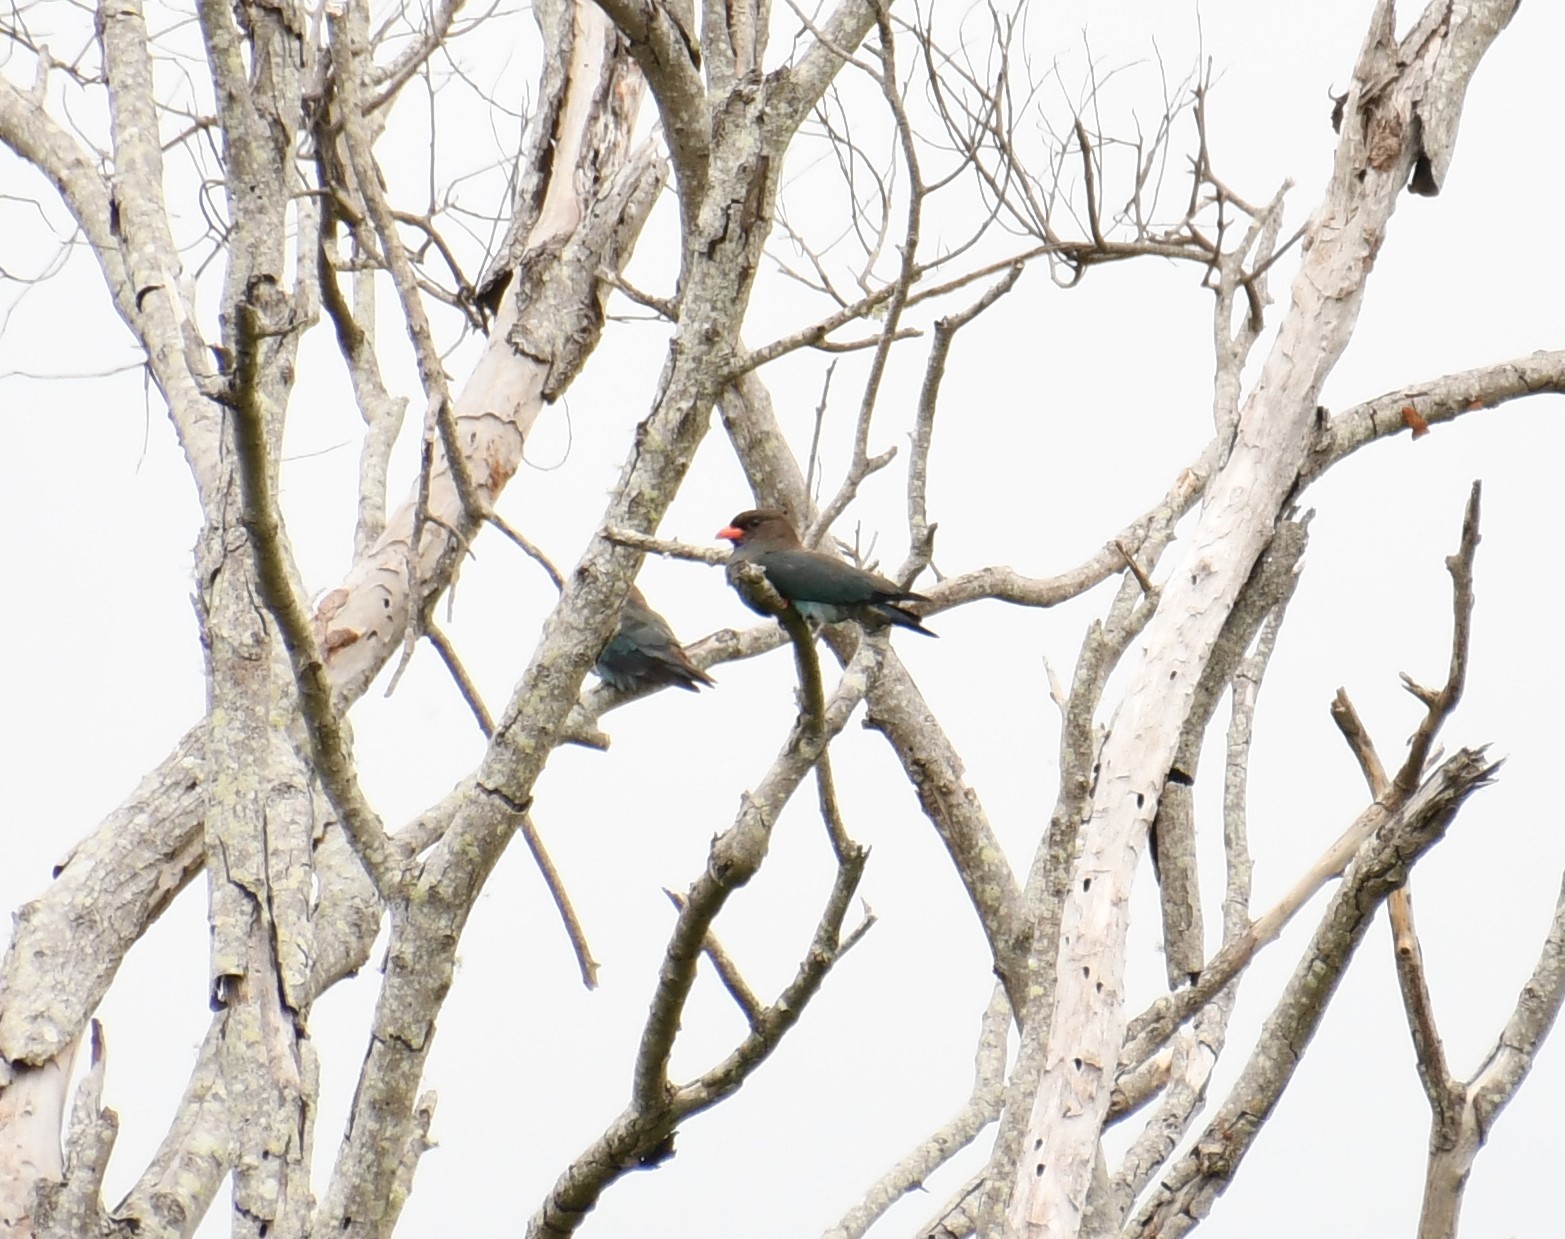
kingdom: Animalia
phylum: Chordata
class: Aves
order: Coraciiformes
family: Coraciidae
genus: Eurystomus
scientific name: Eurystomus orientalis
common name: Oriental dollarbird
